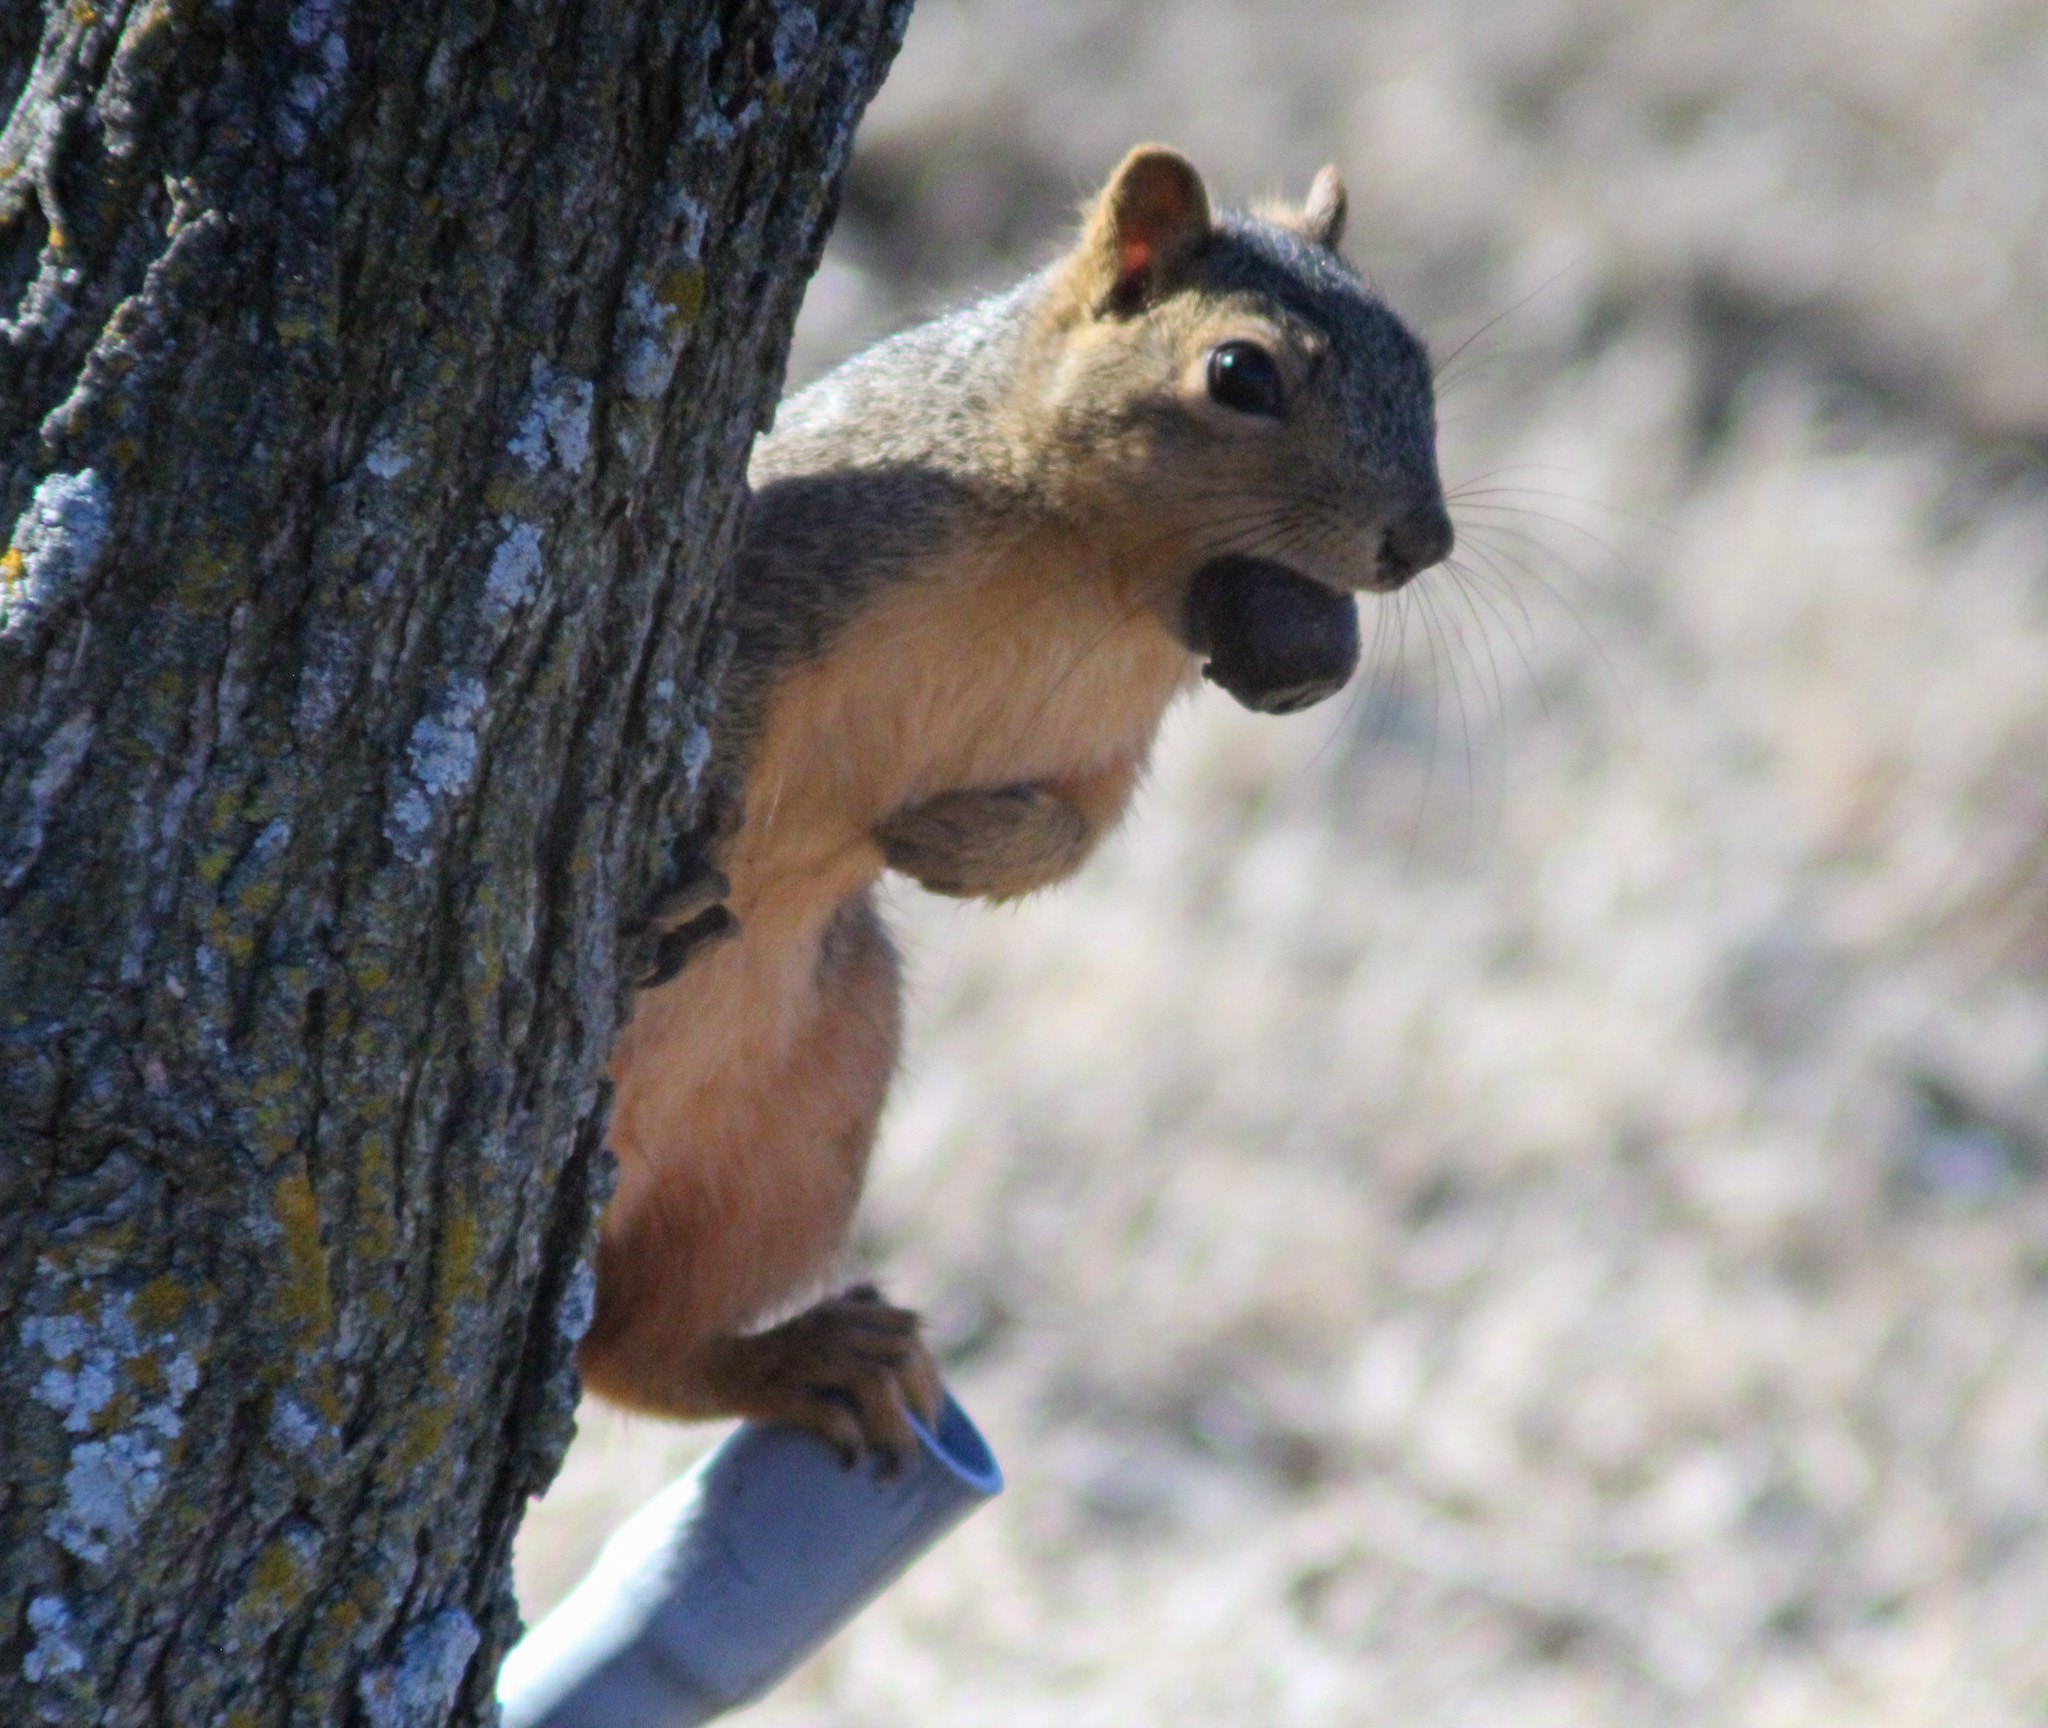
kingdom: Animalia
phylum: Chordata
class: Mammalia
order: Rodentia
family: Sciuridae
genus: Sciurus
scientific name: Sciurus niger
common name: Fox squirrel
